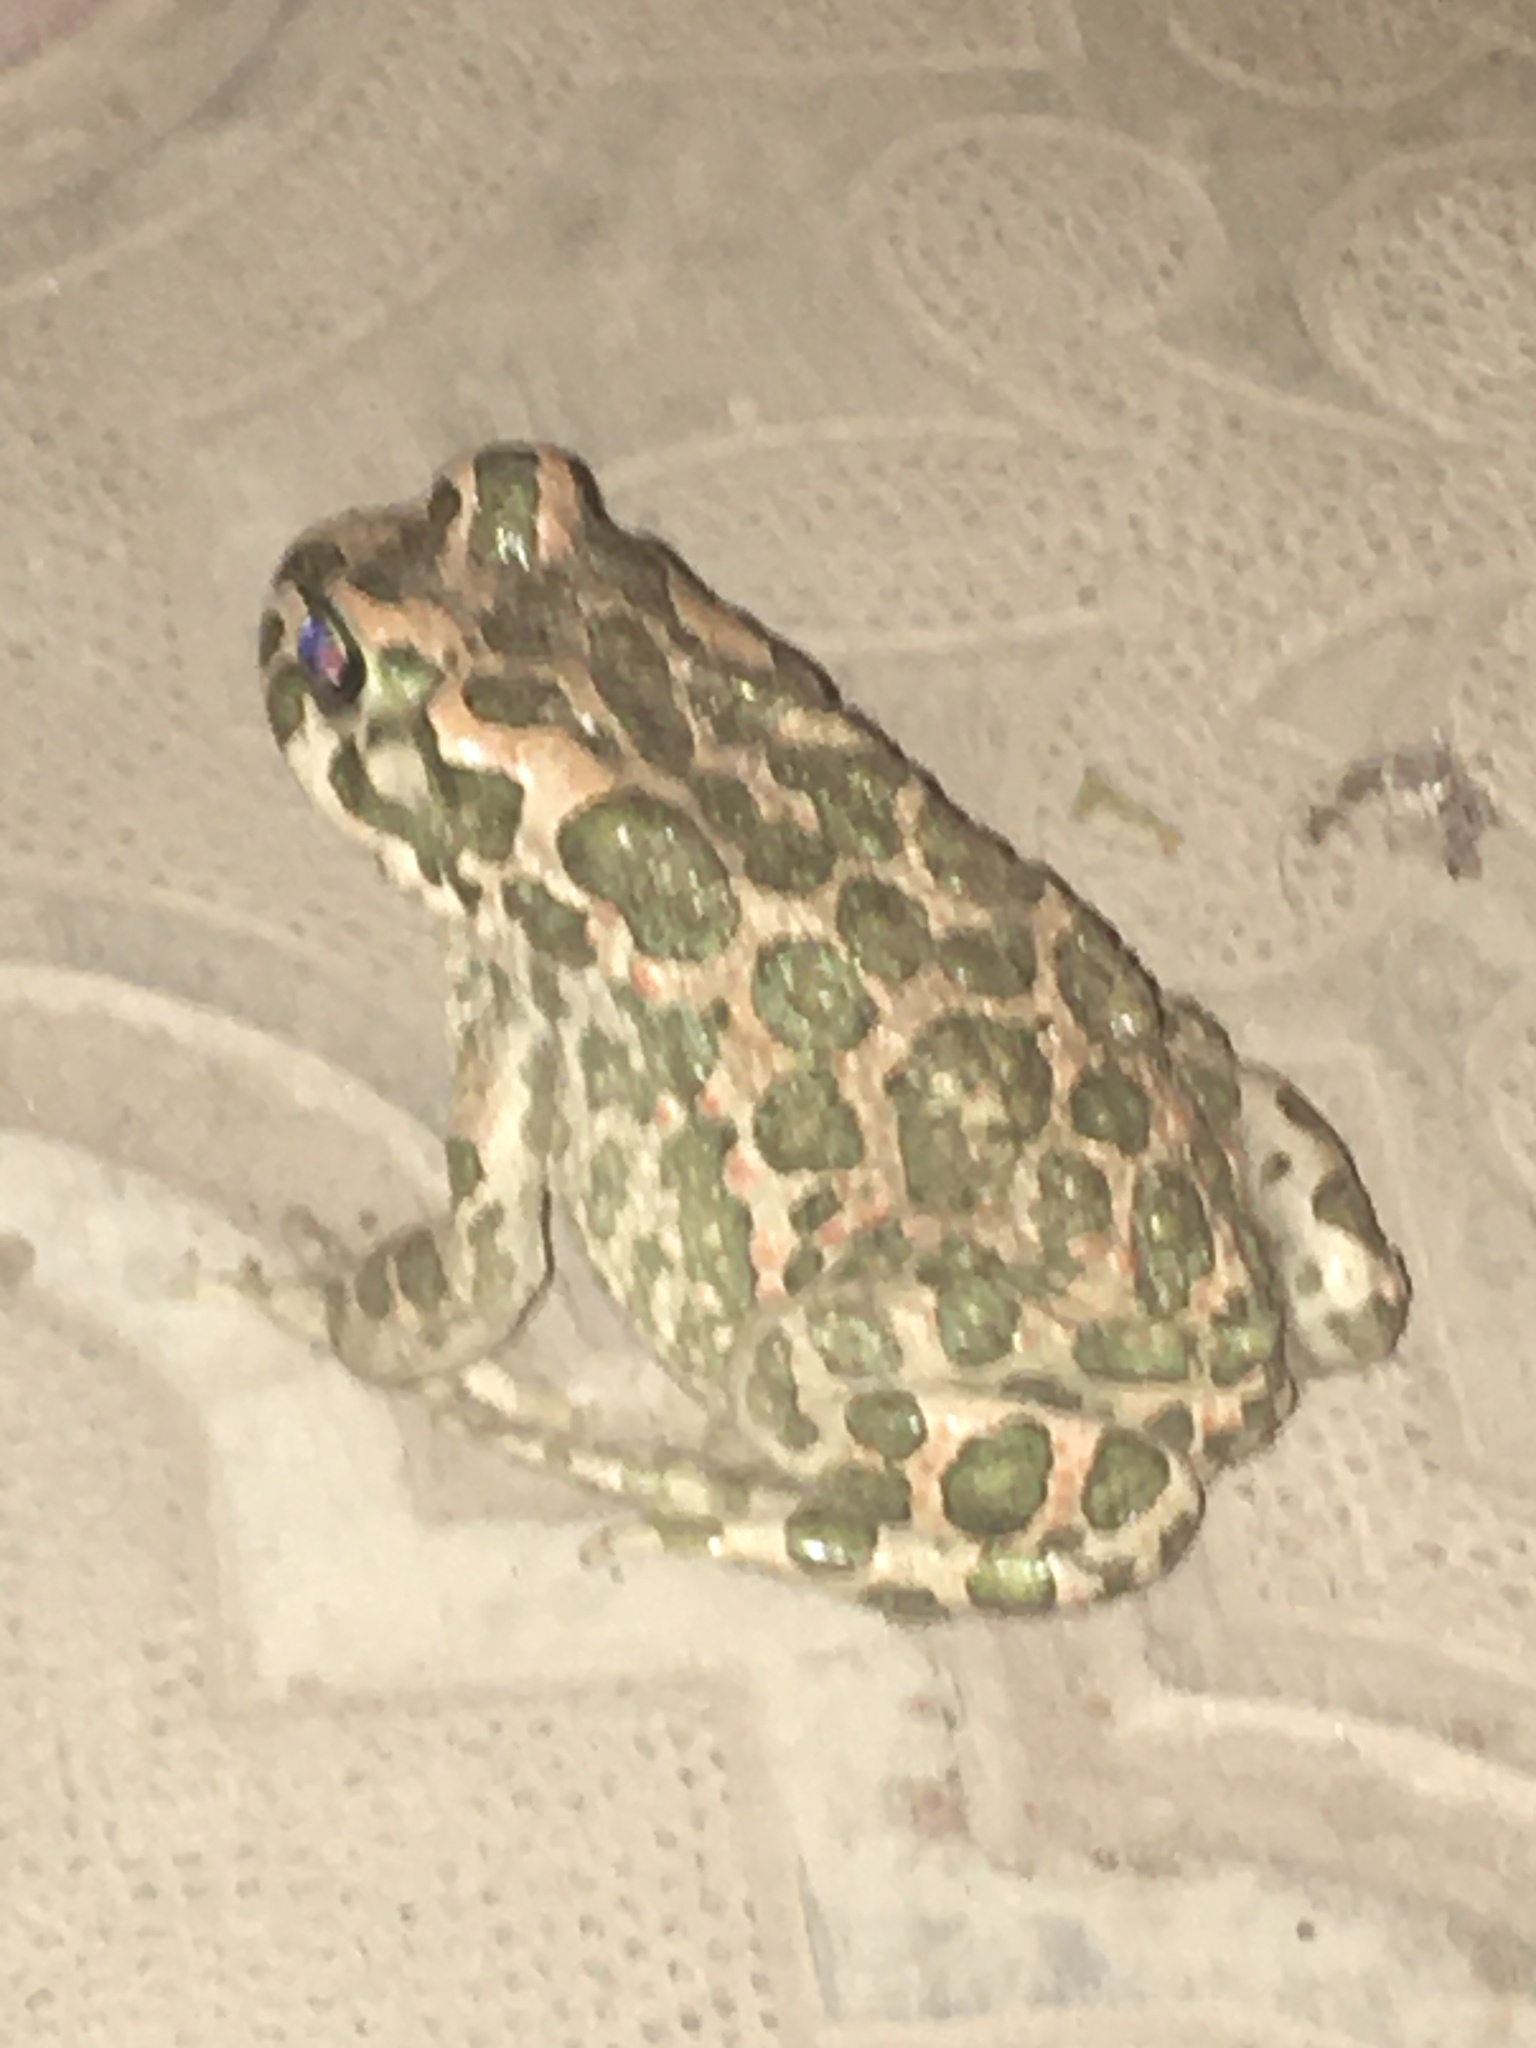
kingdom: Animalia
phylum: Chordata
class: Amphibia
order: Anura
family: Bufonidae
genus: Bufotes
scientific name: Bufotes viridis
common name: European green toad
